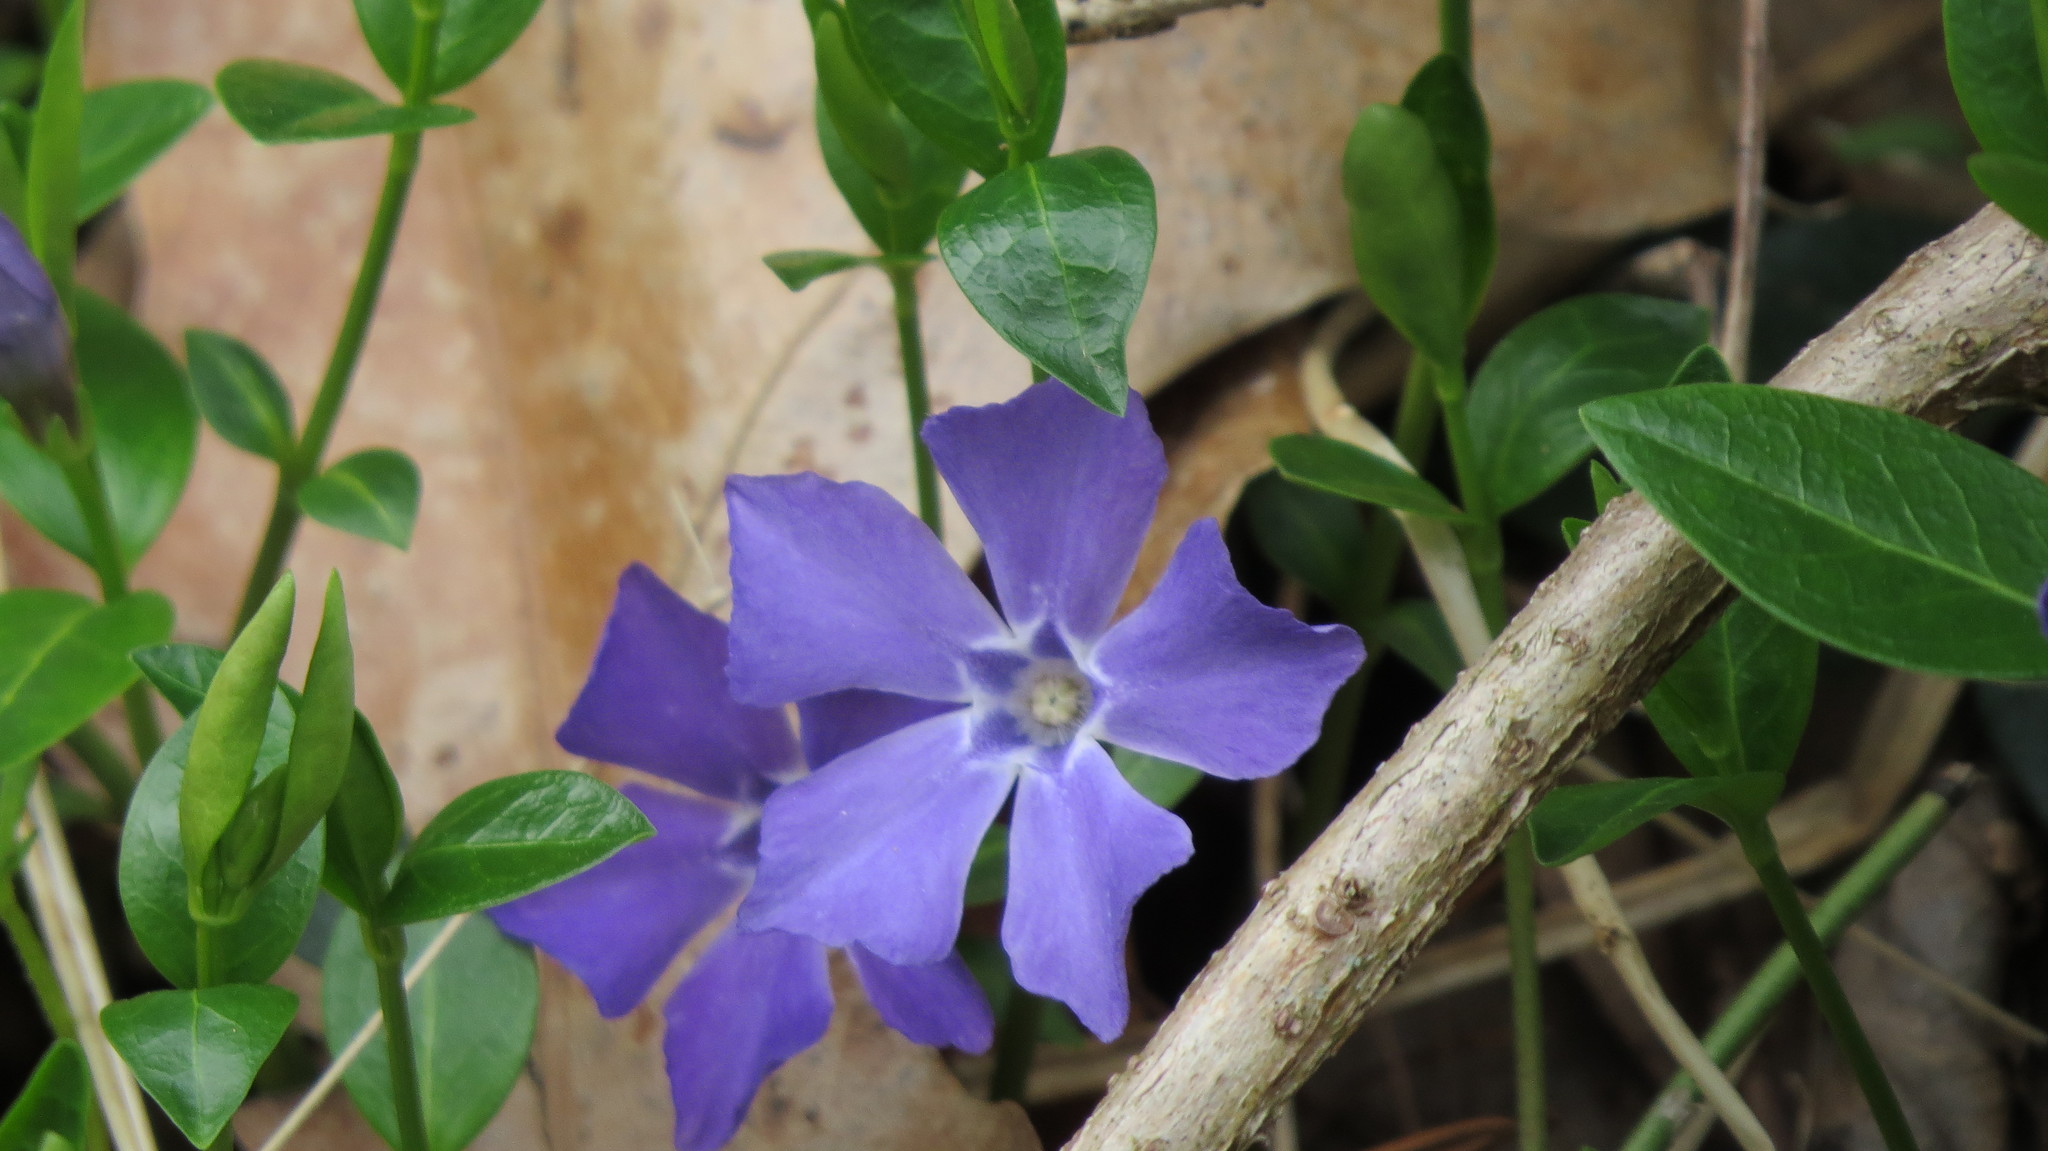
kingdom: Plantae
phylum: Tracheophyta
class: Magnoliopsida
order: Gentianales
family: Apocynaceae
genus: Vinca
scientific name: Vinca minor
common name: Lesser periwinkle
